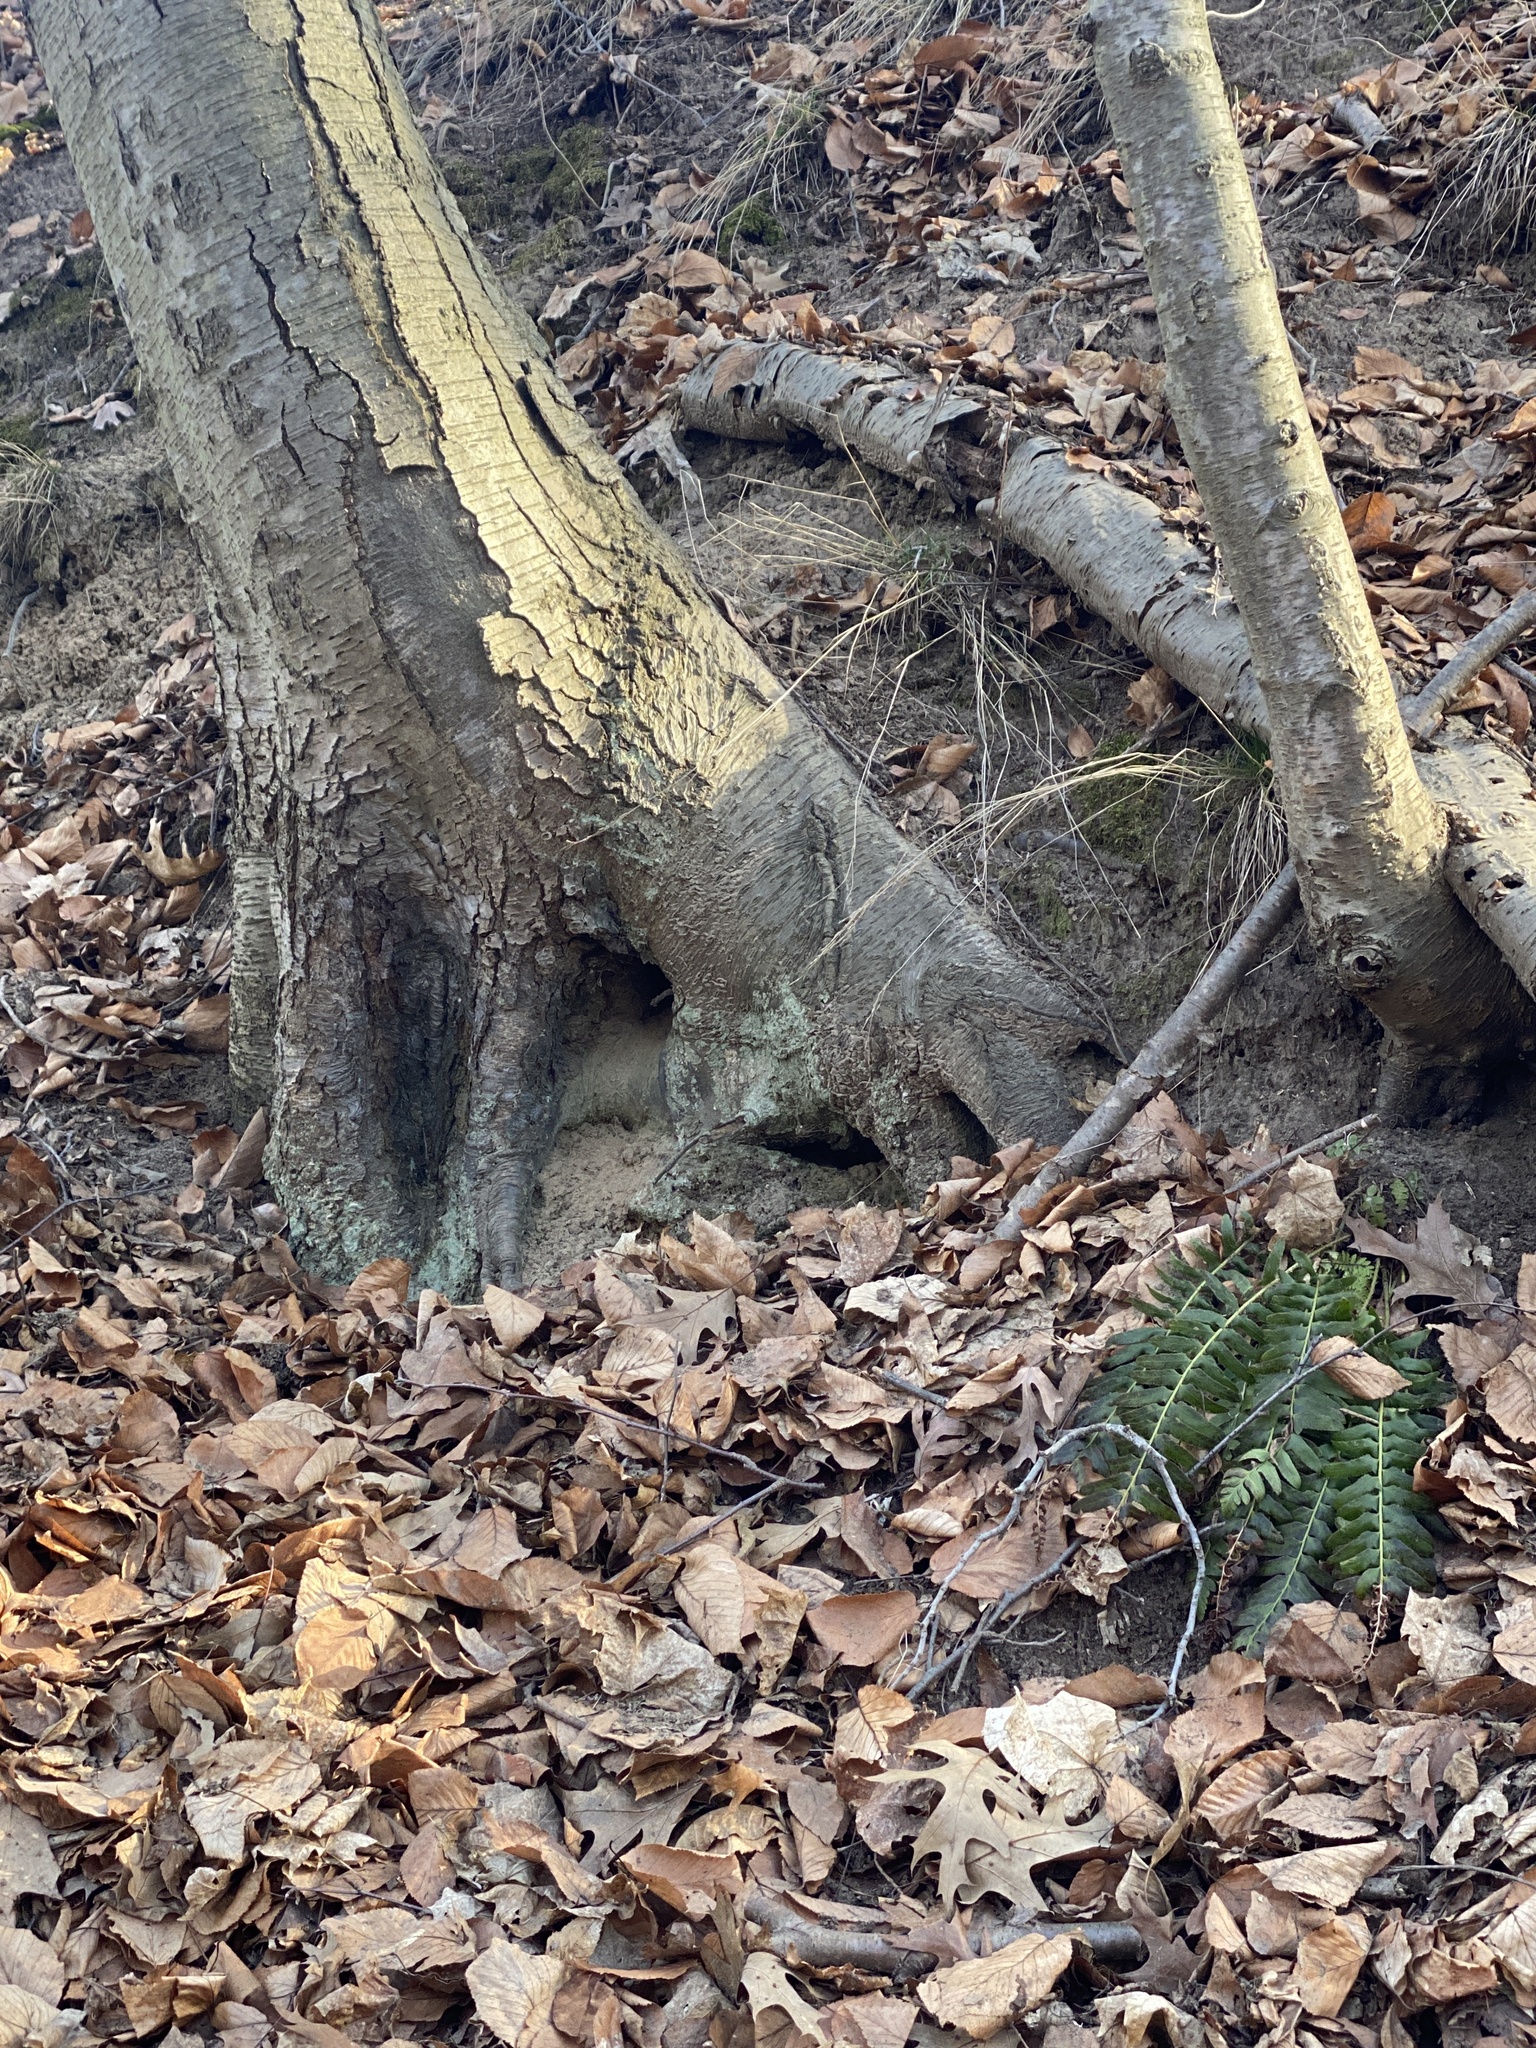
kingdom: Plantae
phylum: Tracheophyta
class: Polypodiopsida
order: Polypodiales
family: Dryopteridaceae
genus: Polystichum
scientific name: Polystichum acrostichoides
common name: Christmas fern
